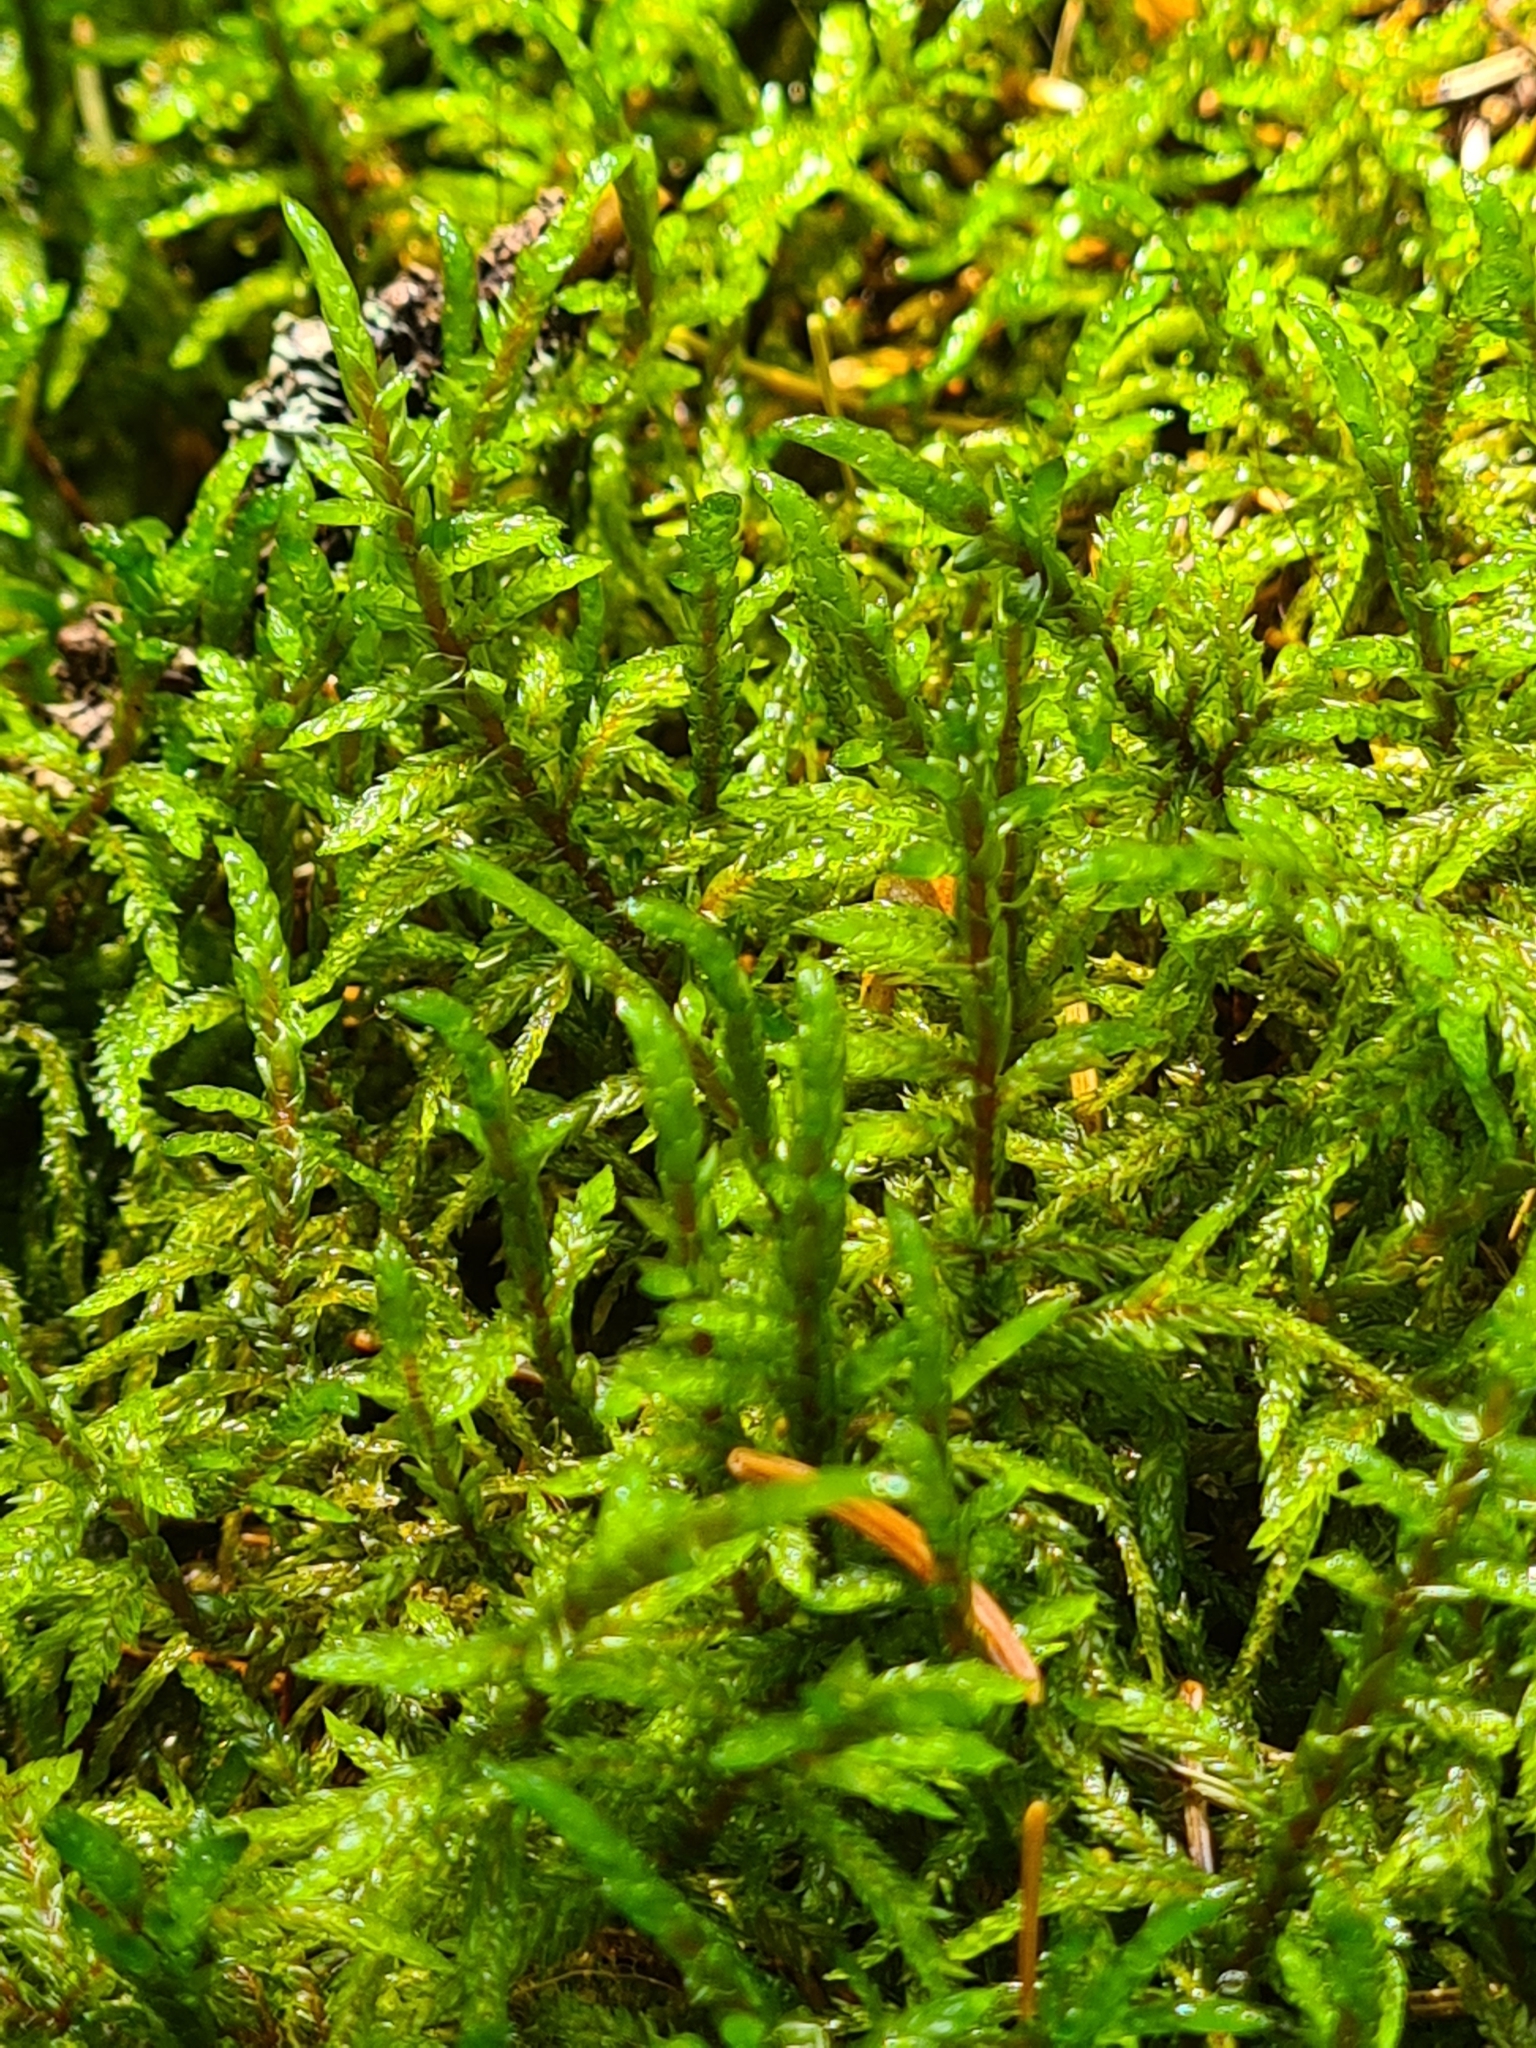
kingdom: Plantae
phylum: Bryophyta
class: Bryopsida
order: Hypnales
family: Hylocomiaceae
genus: Pleurozium
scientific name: Pleurozium schreberi
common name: Red-stemmed feather moss
